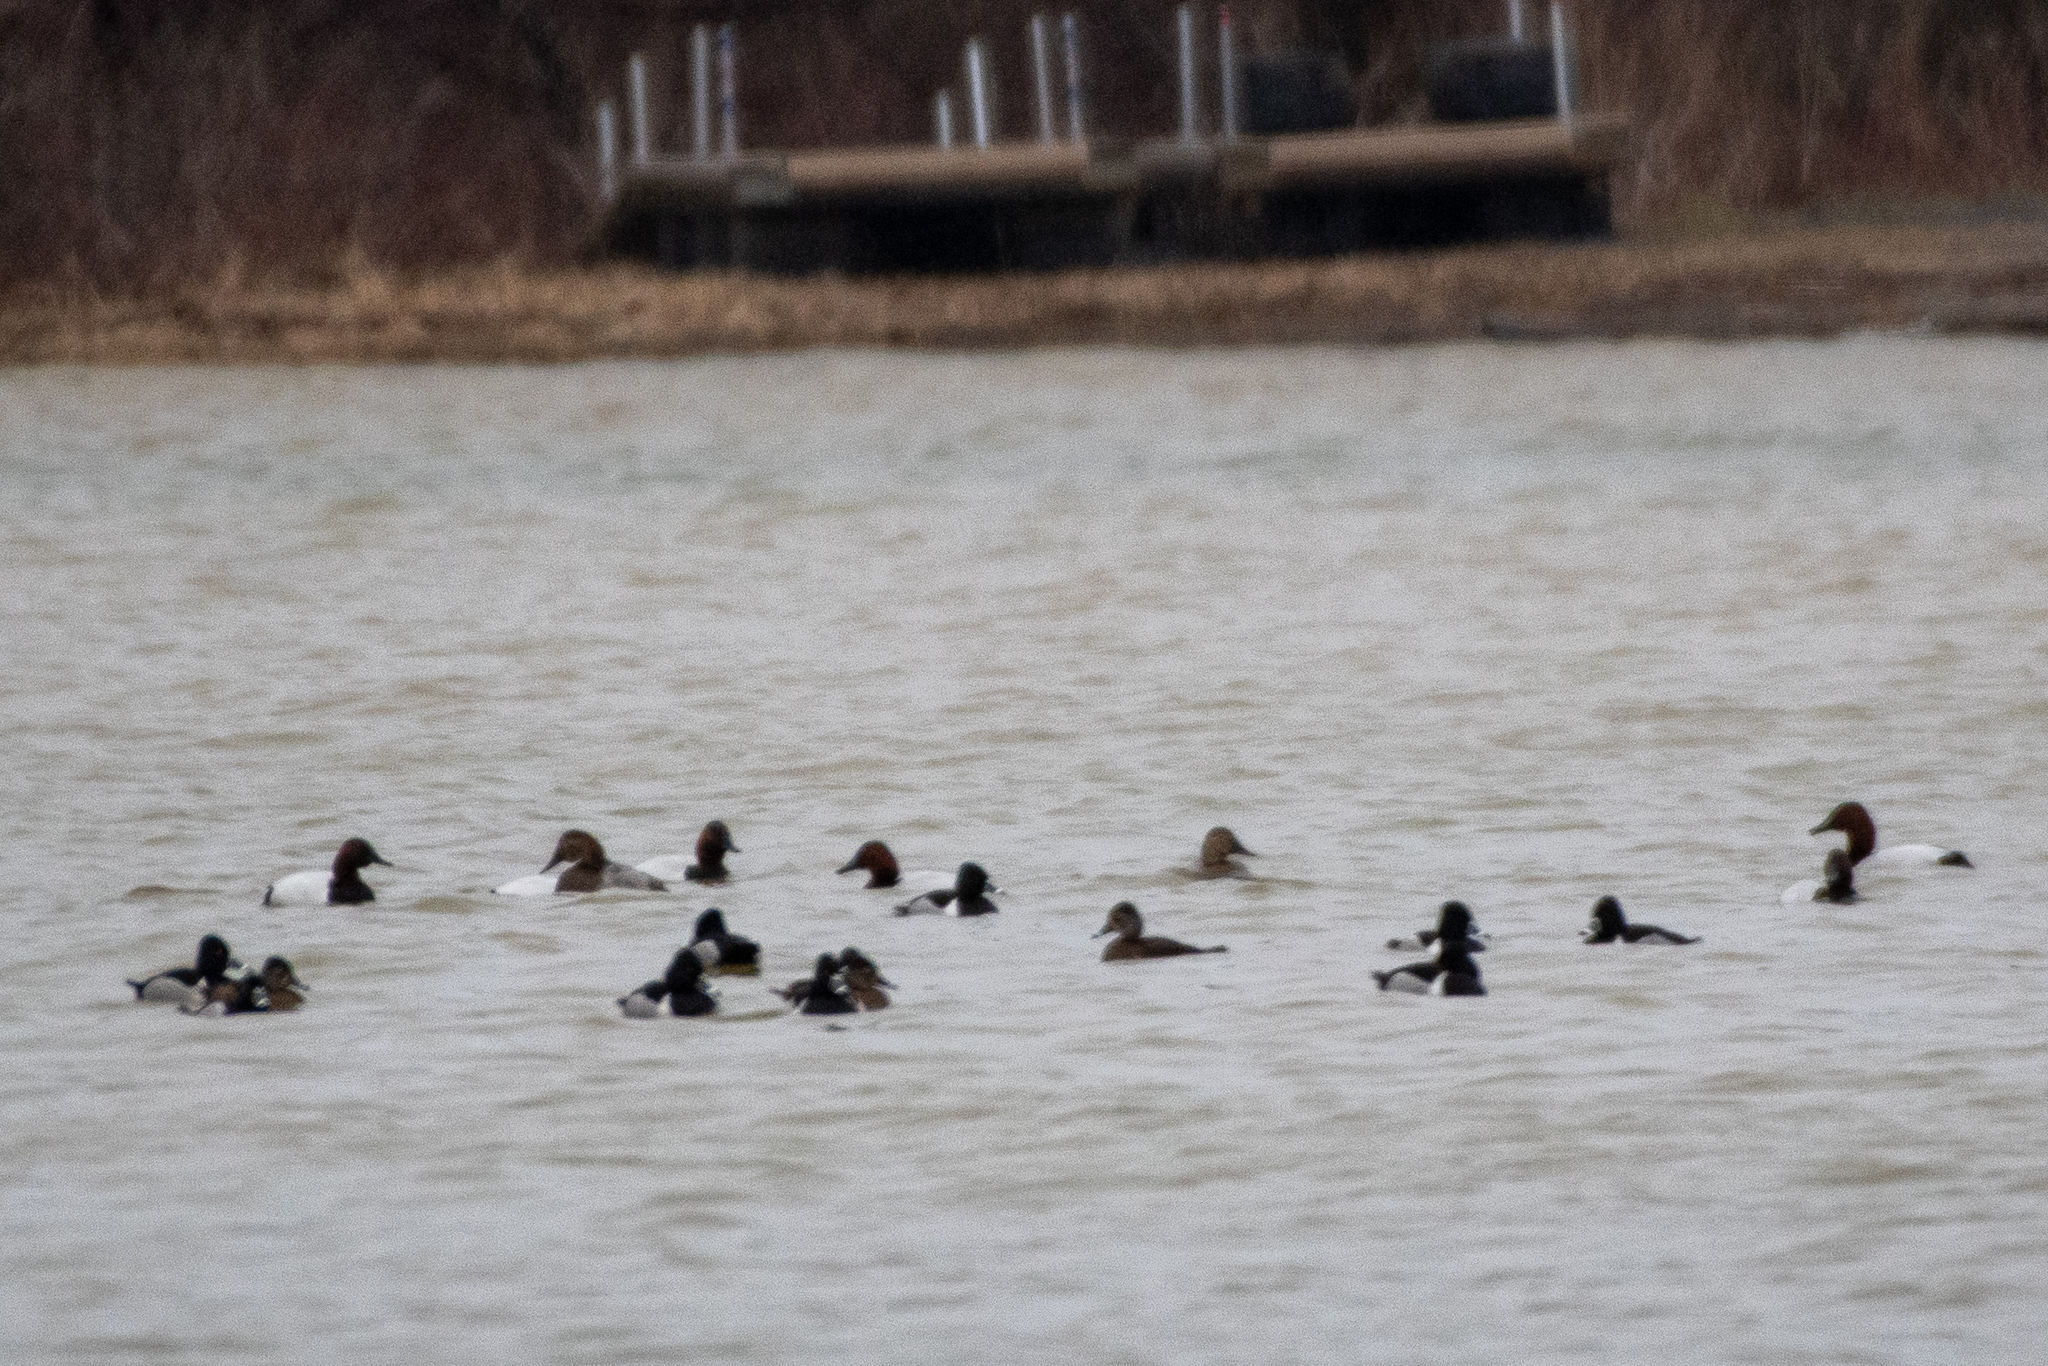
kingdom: Animalia
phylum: Chordata
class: Aves
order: Anseriformes
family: Anatidae
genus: Aythya
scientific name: Aythya collaris
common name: Ring-necked duck
